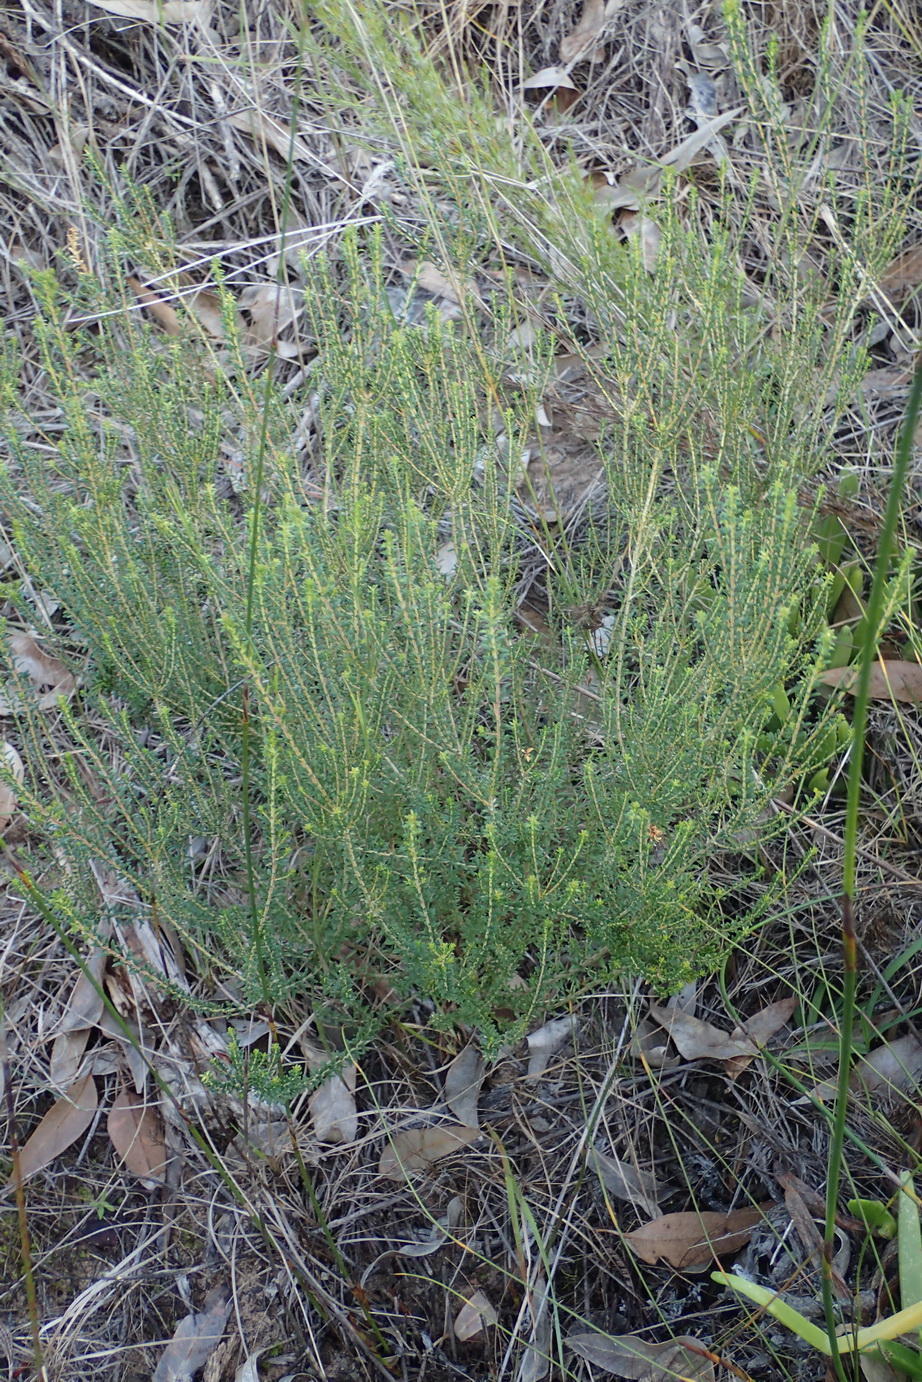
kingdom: Plantae
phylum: Tracheophyta
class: Magnoliopsida
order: Sapindales
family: Rutaceae
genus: Agathosma
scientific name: Agathosma capensis
